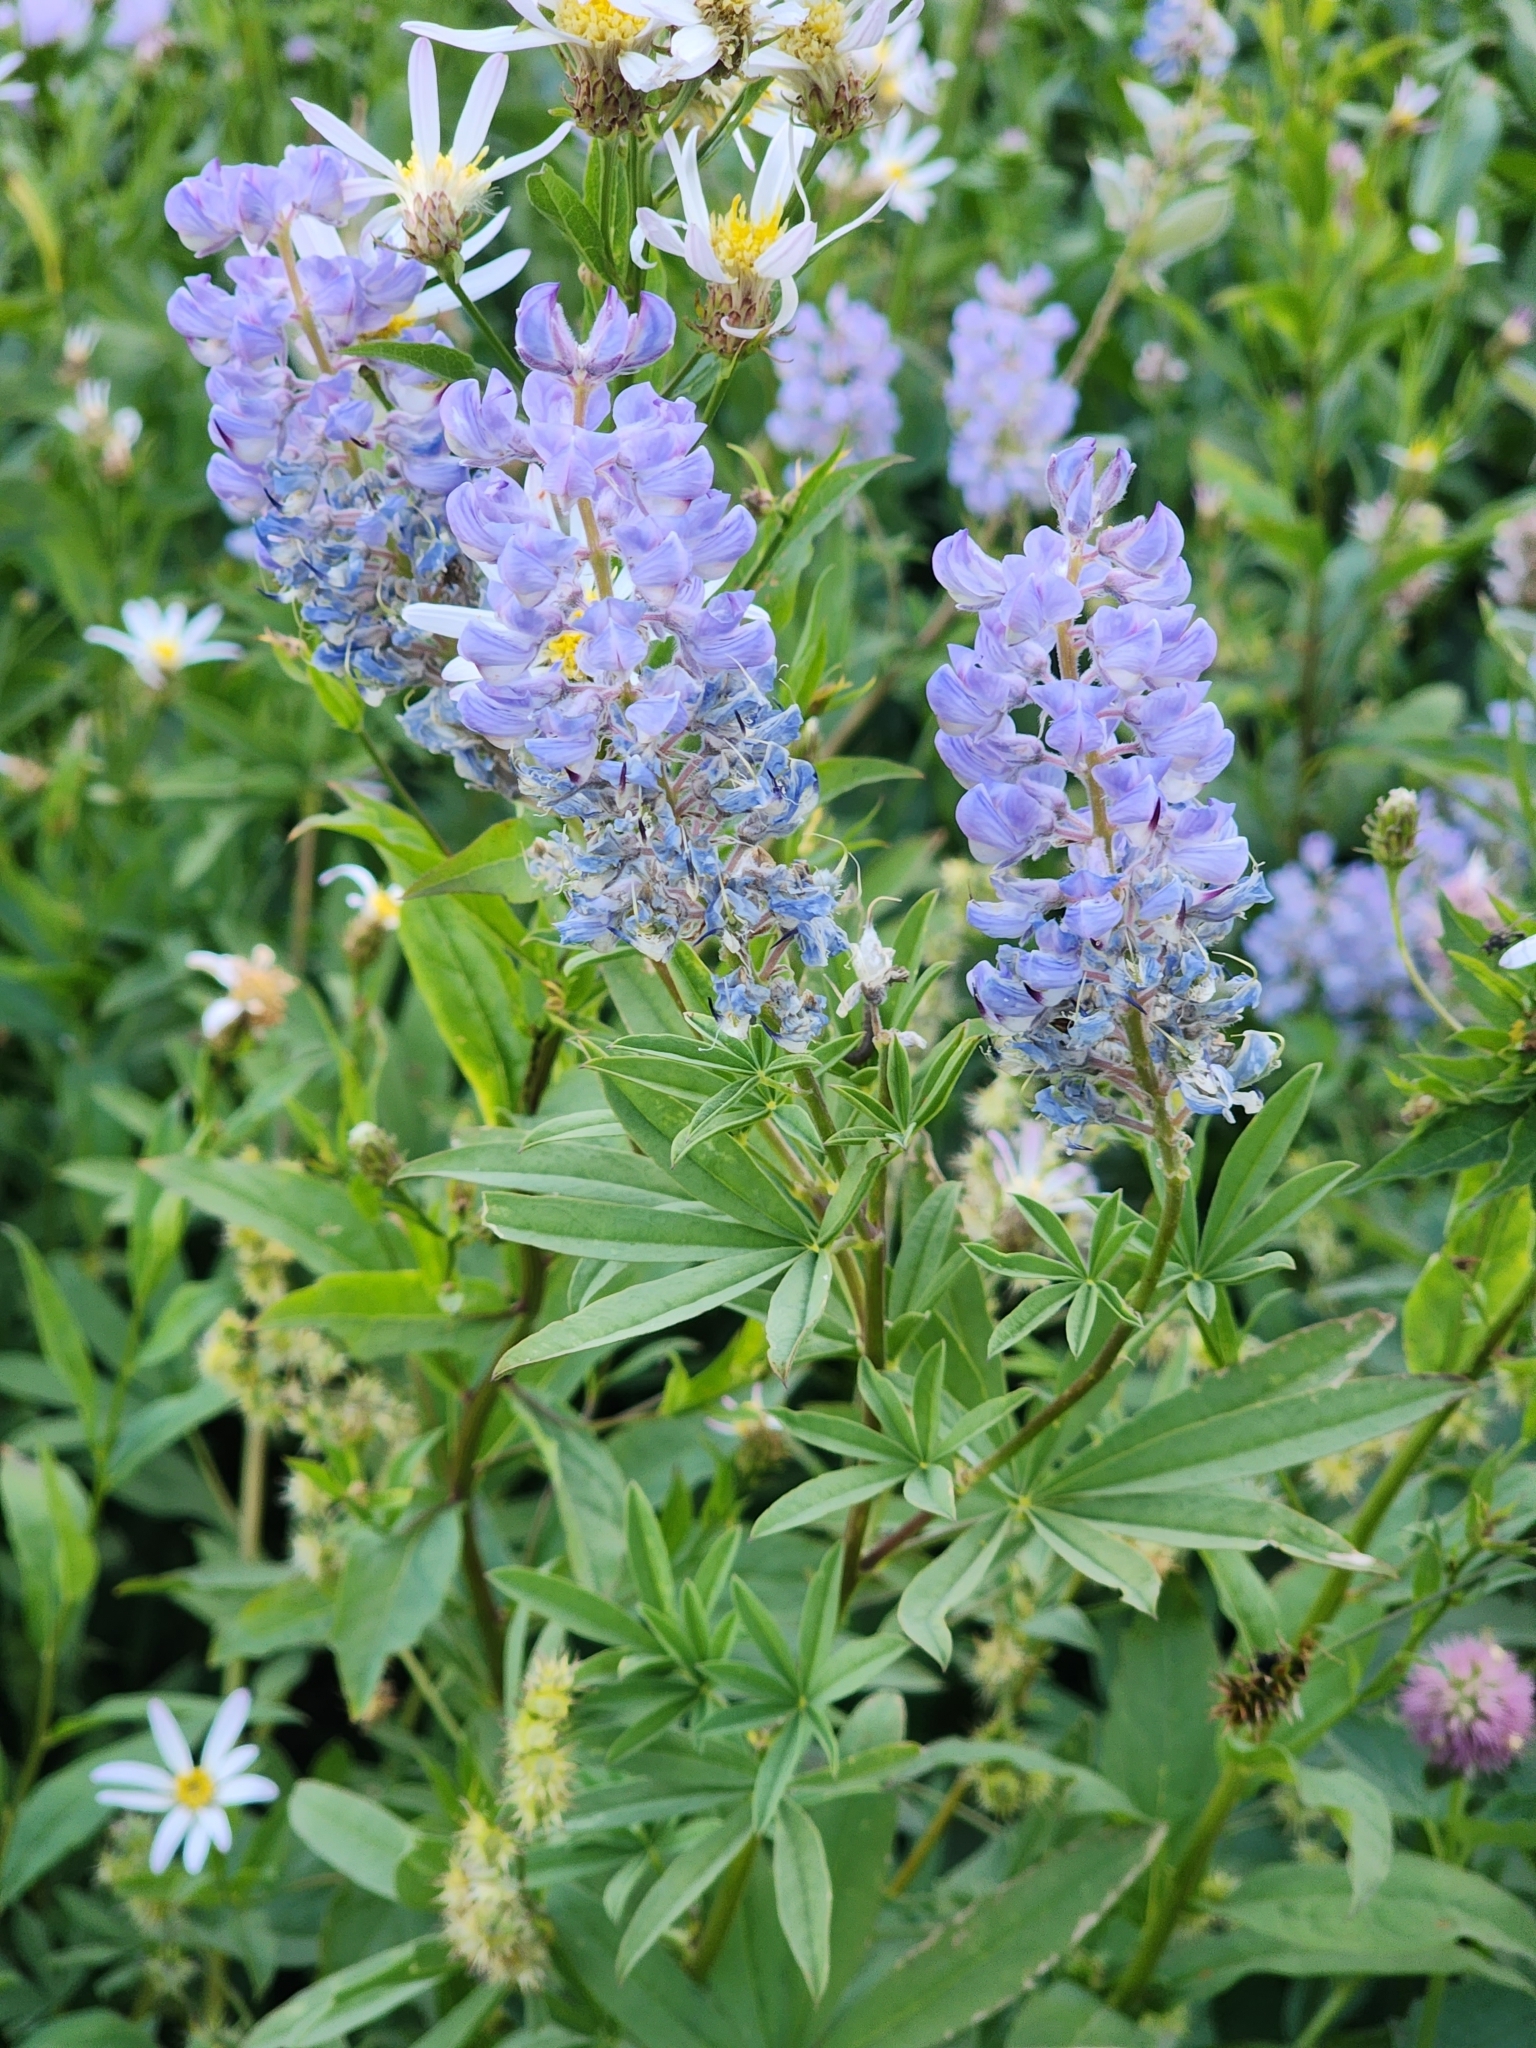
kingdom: Plantae
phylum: Tracheophyta
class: Magnoliopsida
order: Fabales
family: Fabaceae
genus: Lupinus
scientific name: Lupinus argenteus
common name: Silvery lupine
